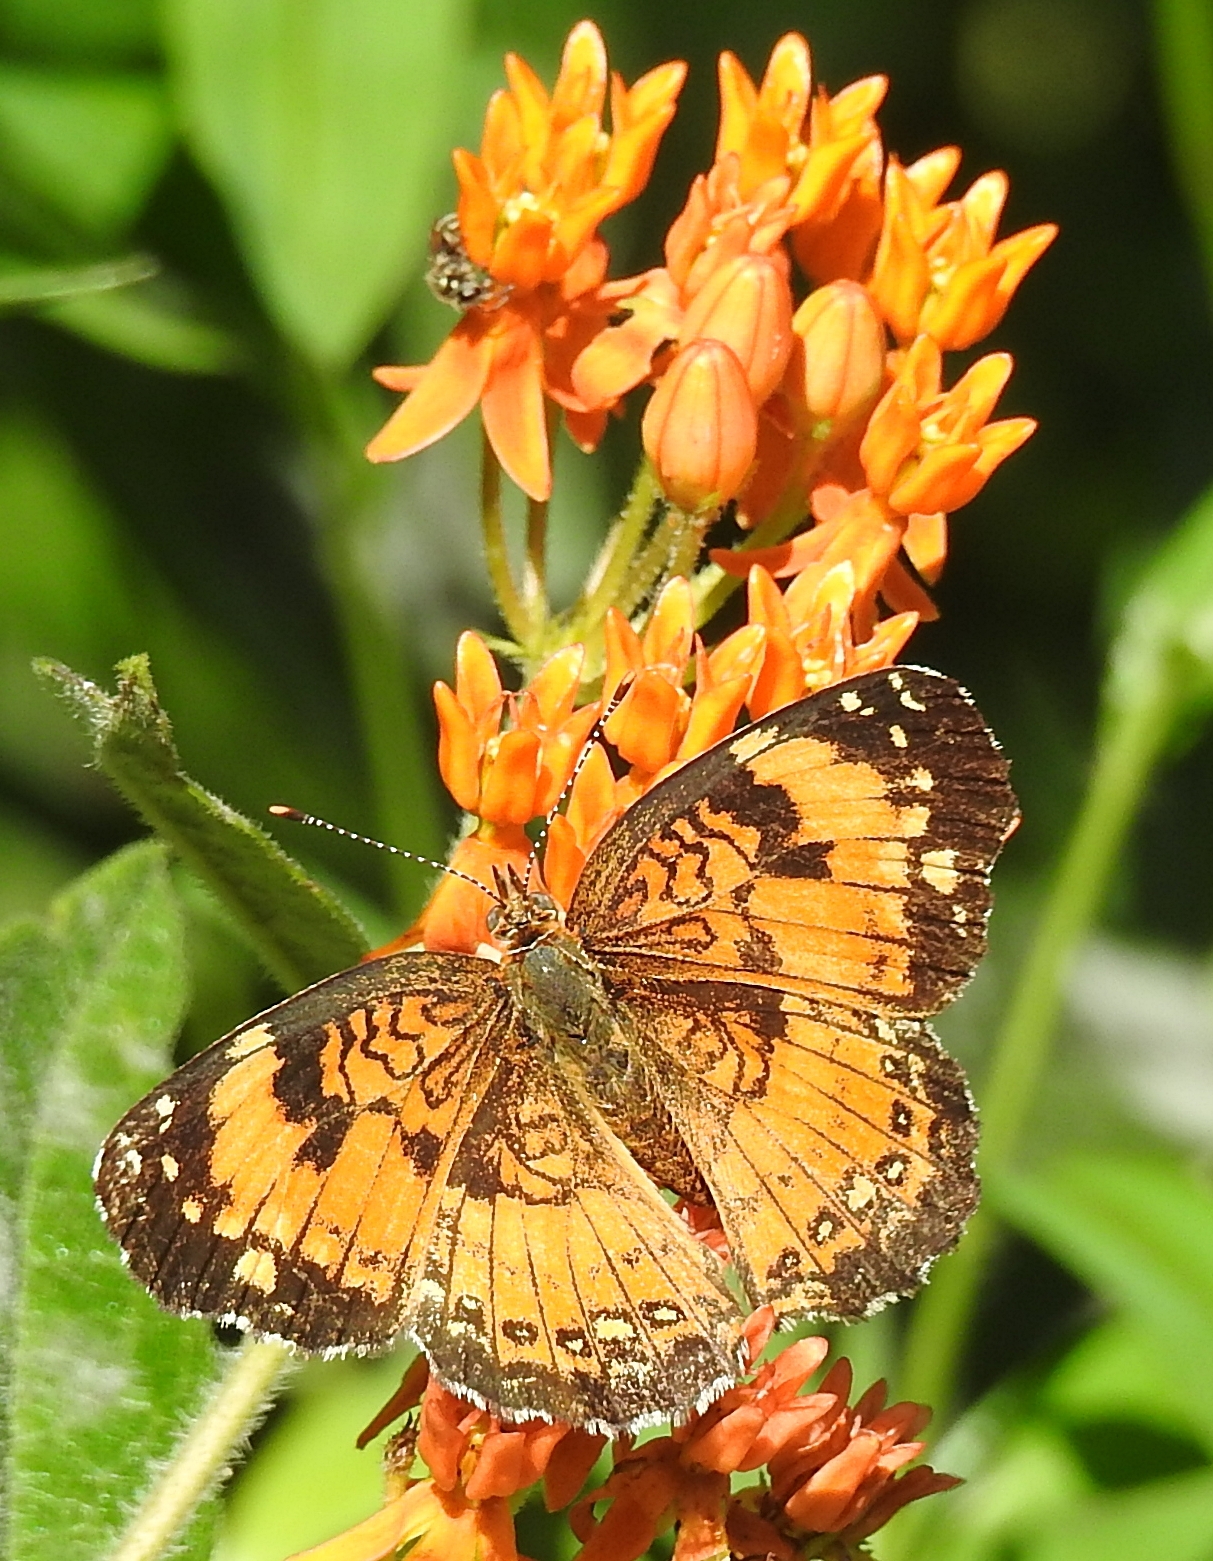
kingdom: Animalia
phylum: Arthropoda
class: Insecta
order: Lepidoptera
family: Nymphalidae
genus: Chlosyne
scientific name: Chlosyne nycteis
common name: Silvery checkerspot
